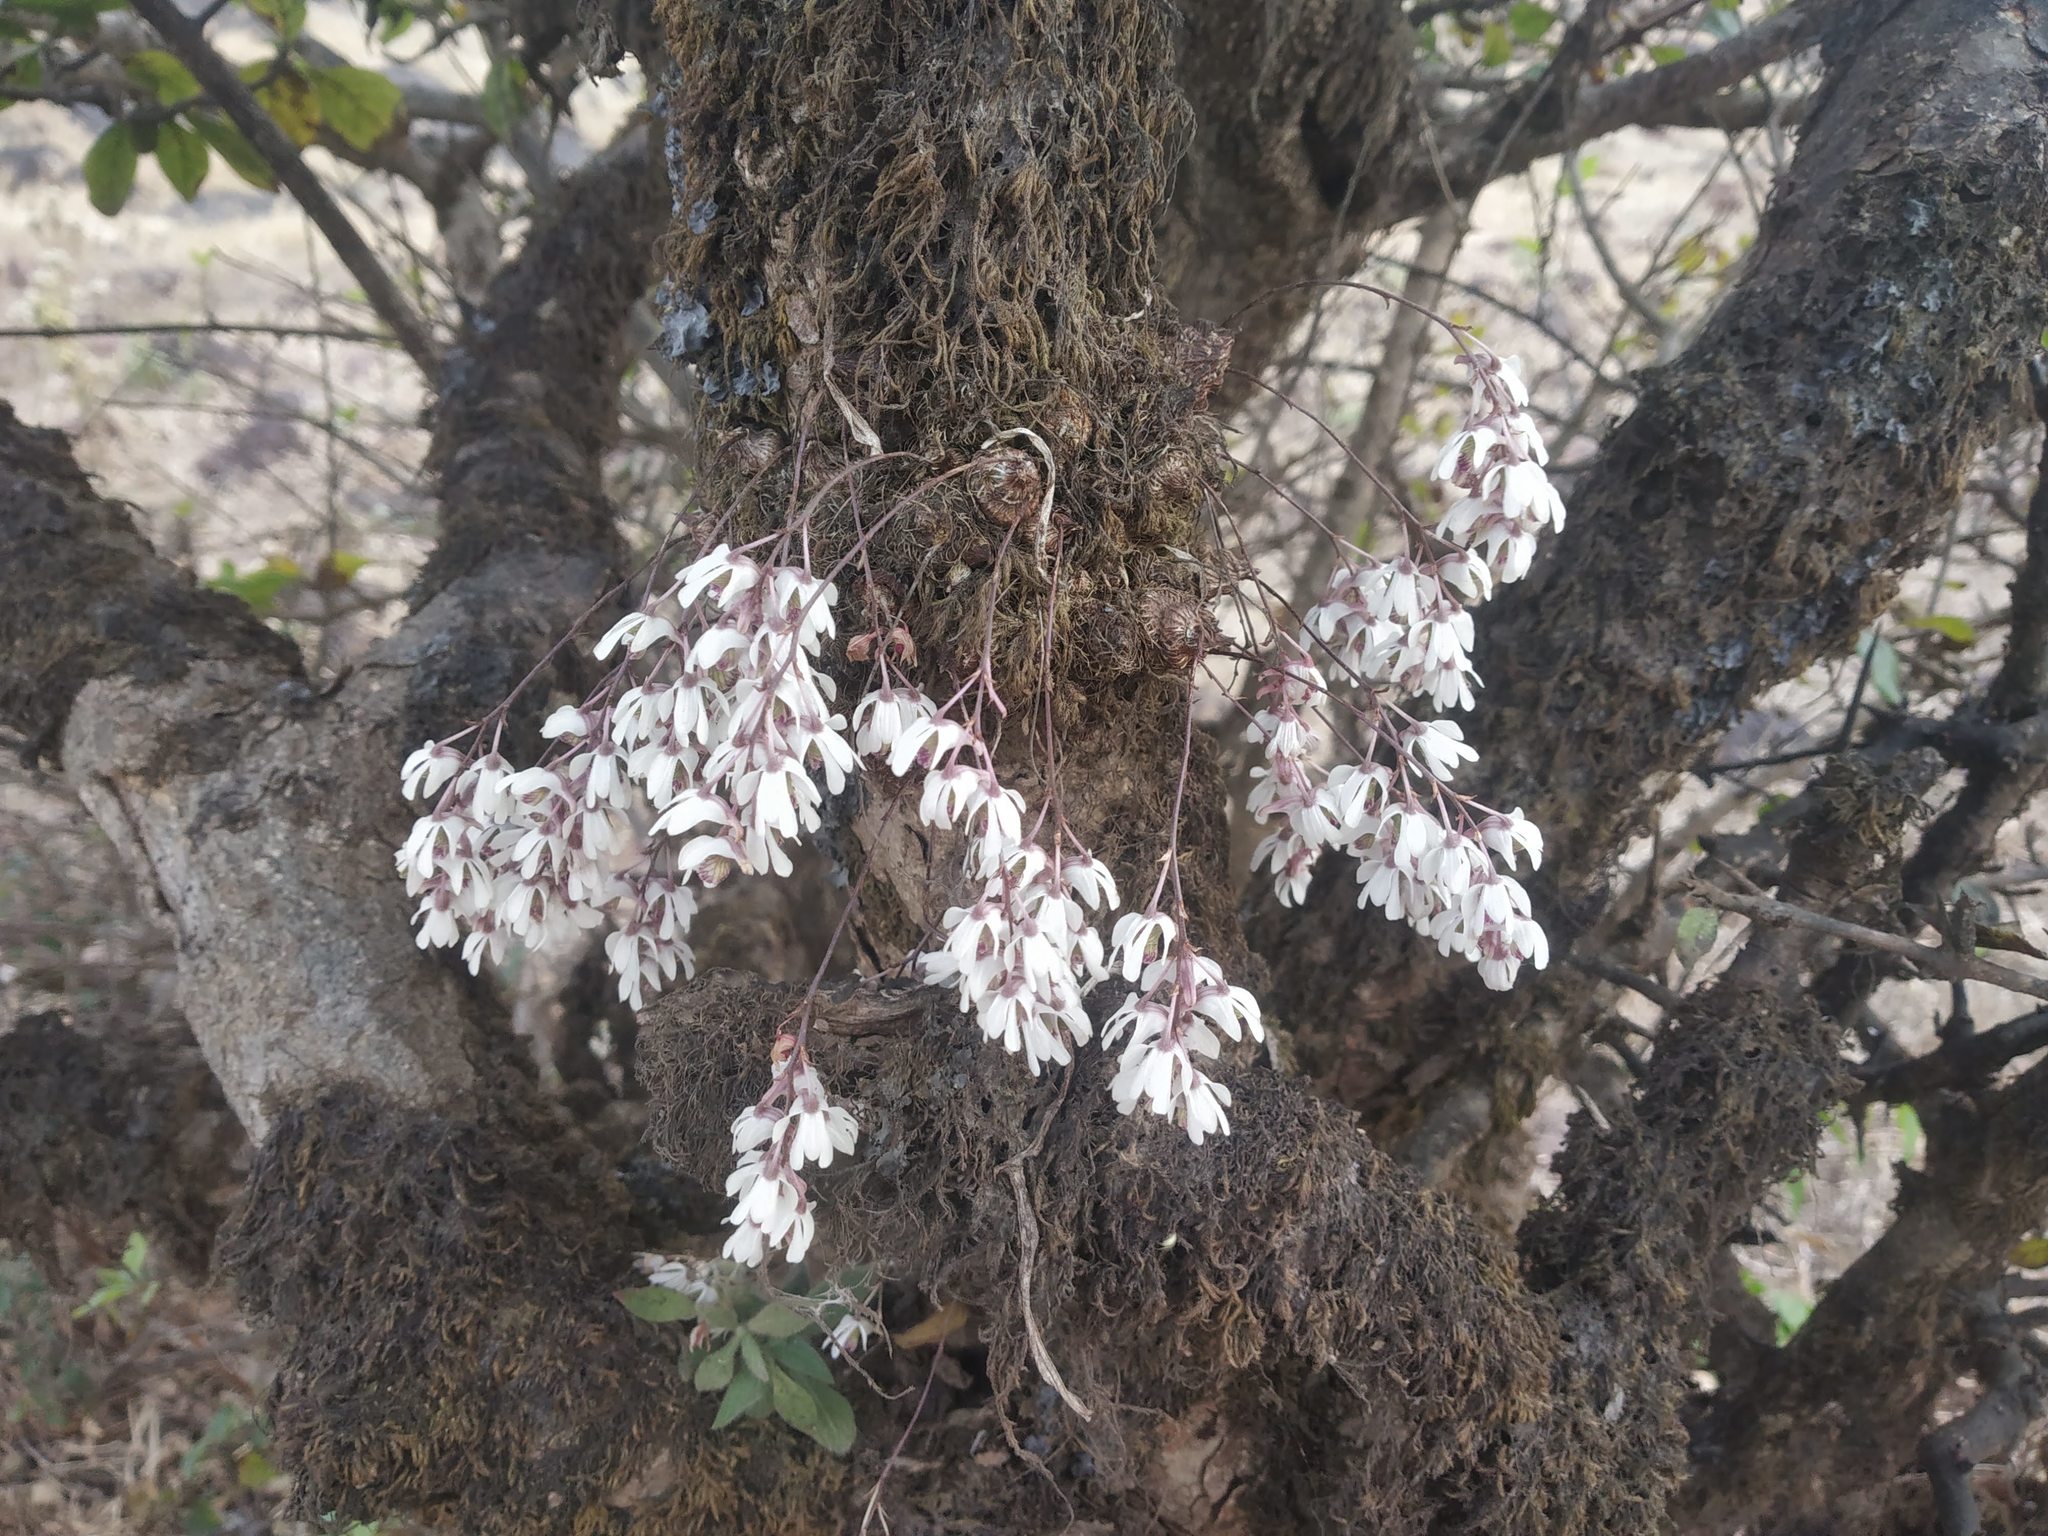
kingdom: Plantae
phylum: Tracheophyta
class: Liliopsida
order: Asparagales
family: Orchidaceae
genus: Dendrobium
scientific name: Dendrobium turbinatum
